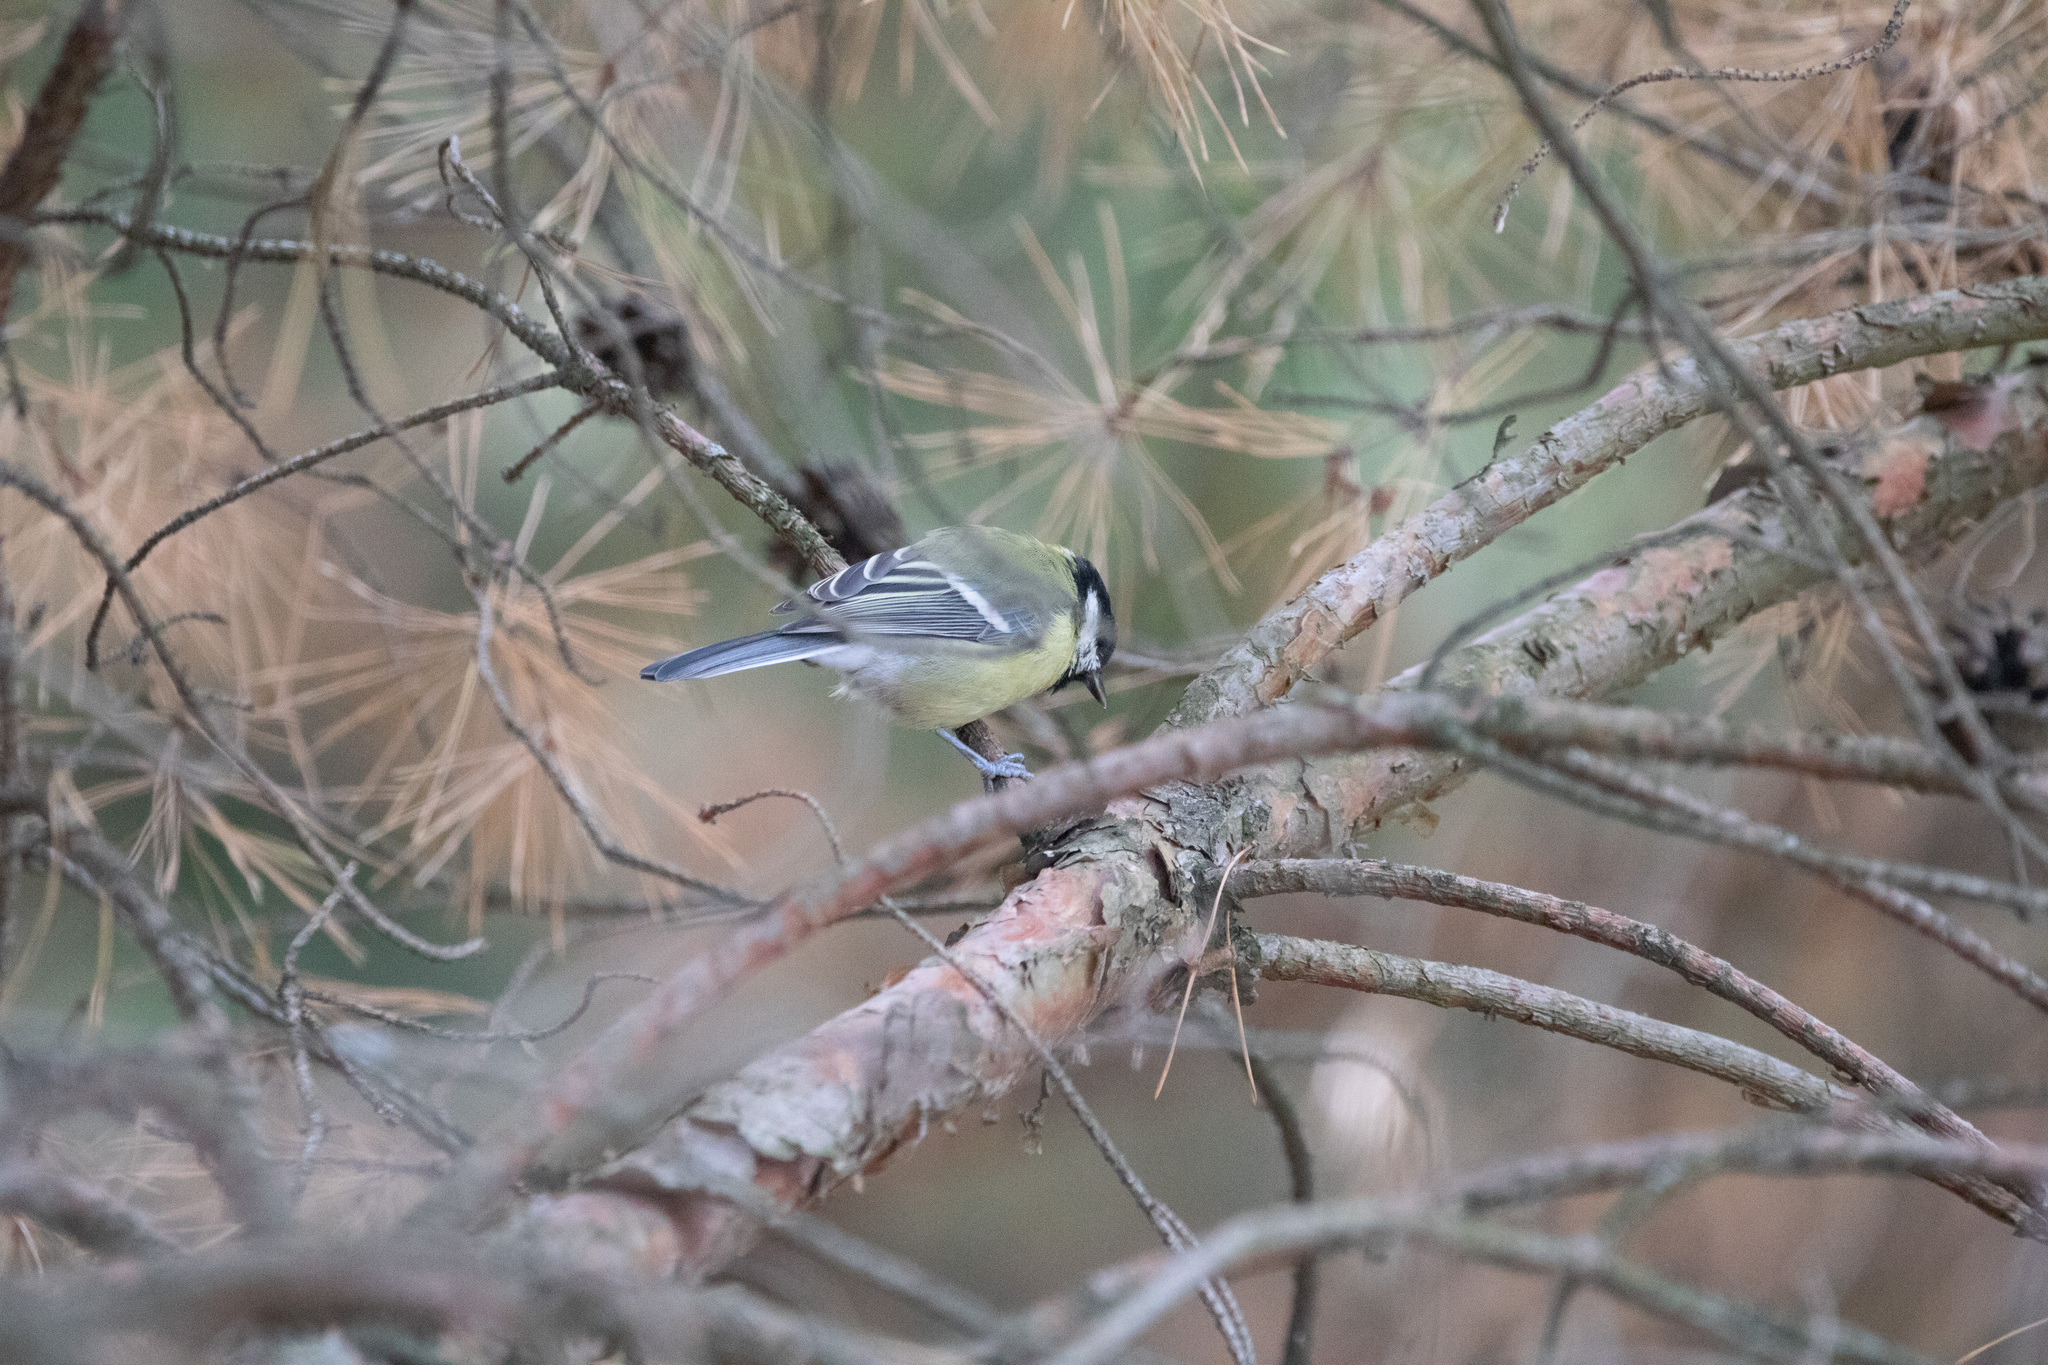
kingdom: Animalia
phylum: Chordata
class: Aves
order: Passeriformes
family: Paridae
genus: Parus
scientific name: Parus major
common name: Great tit
